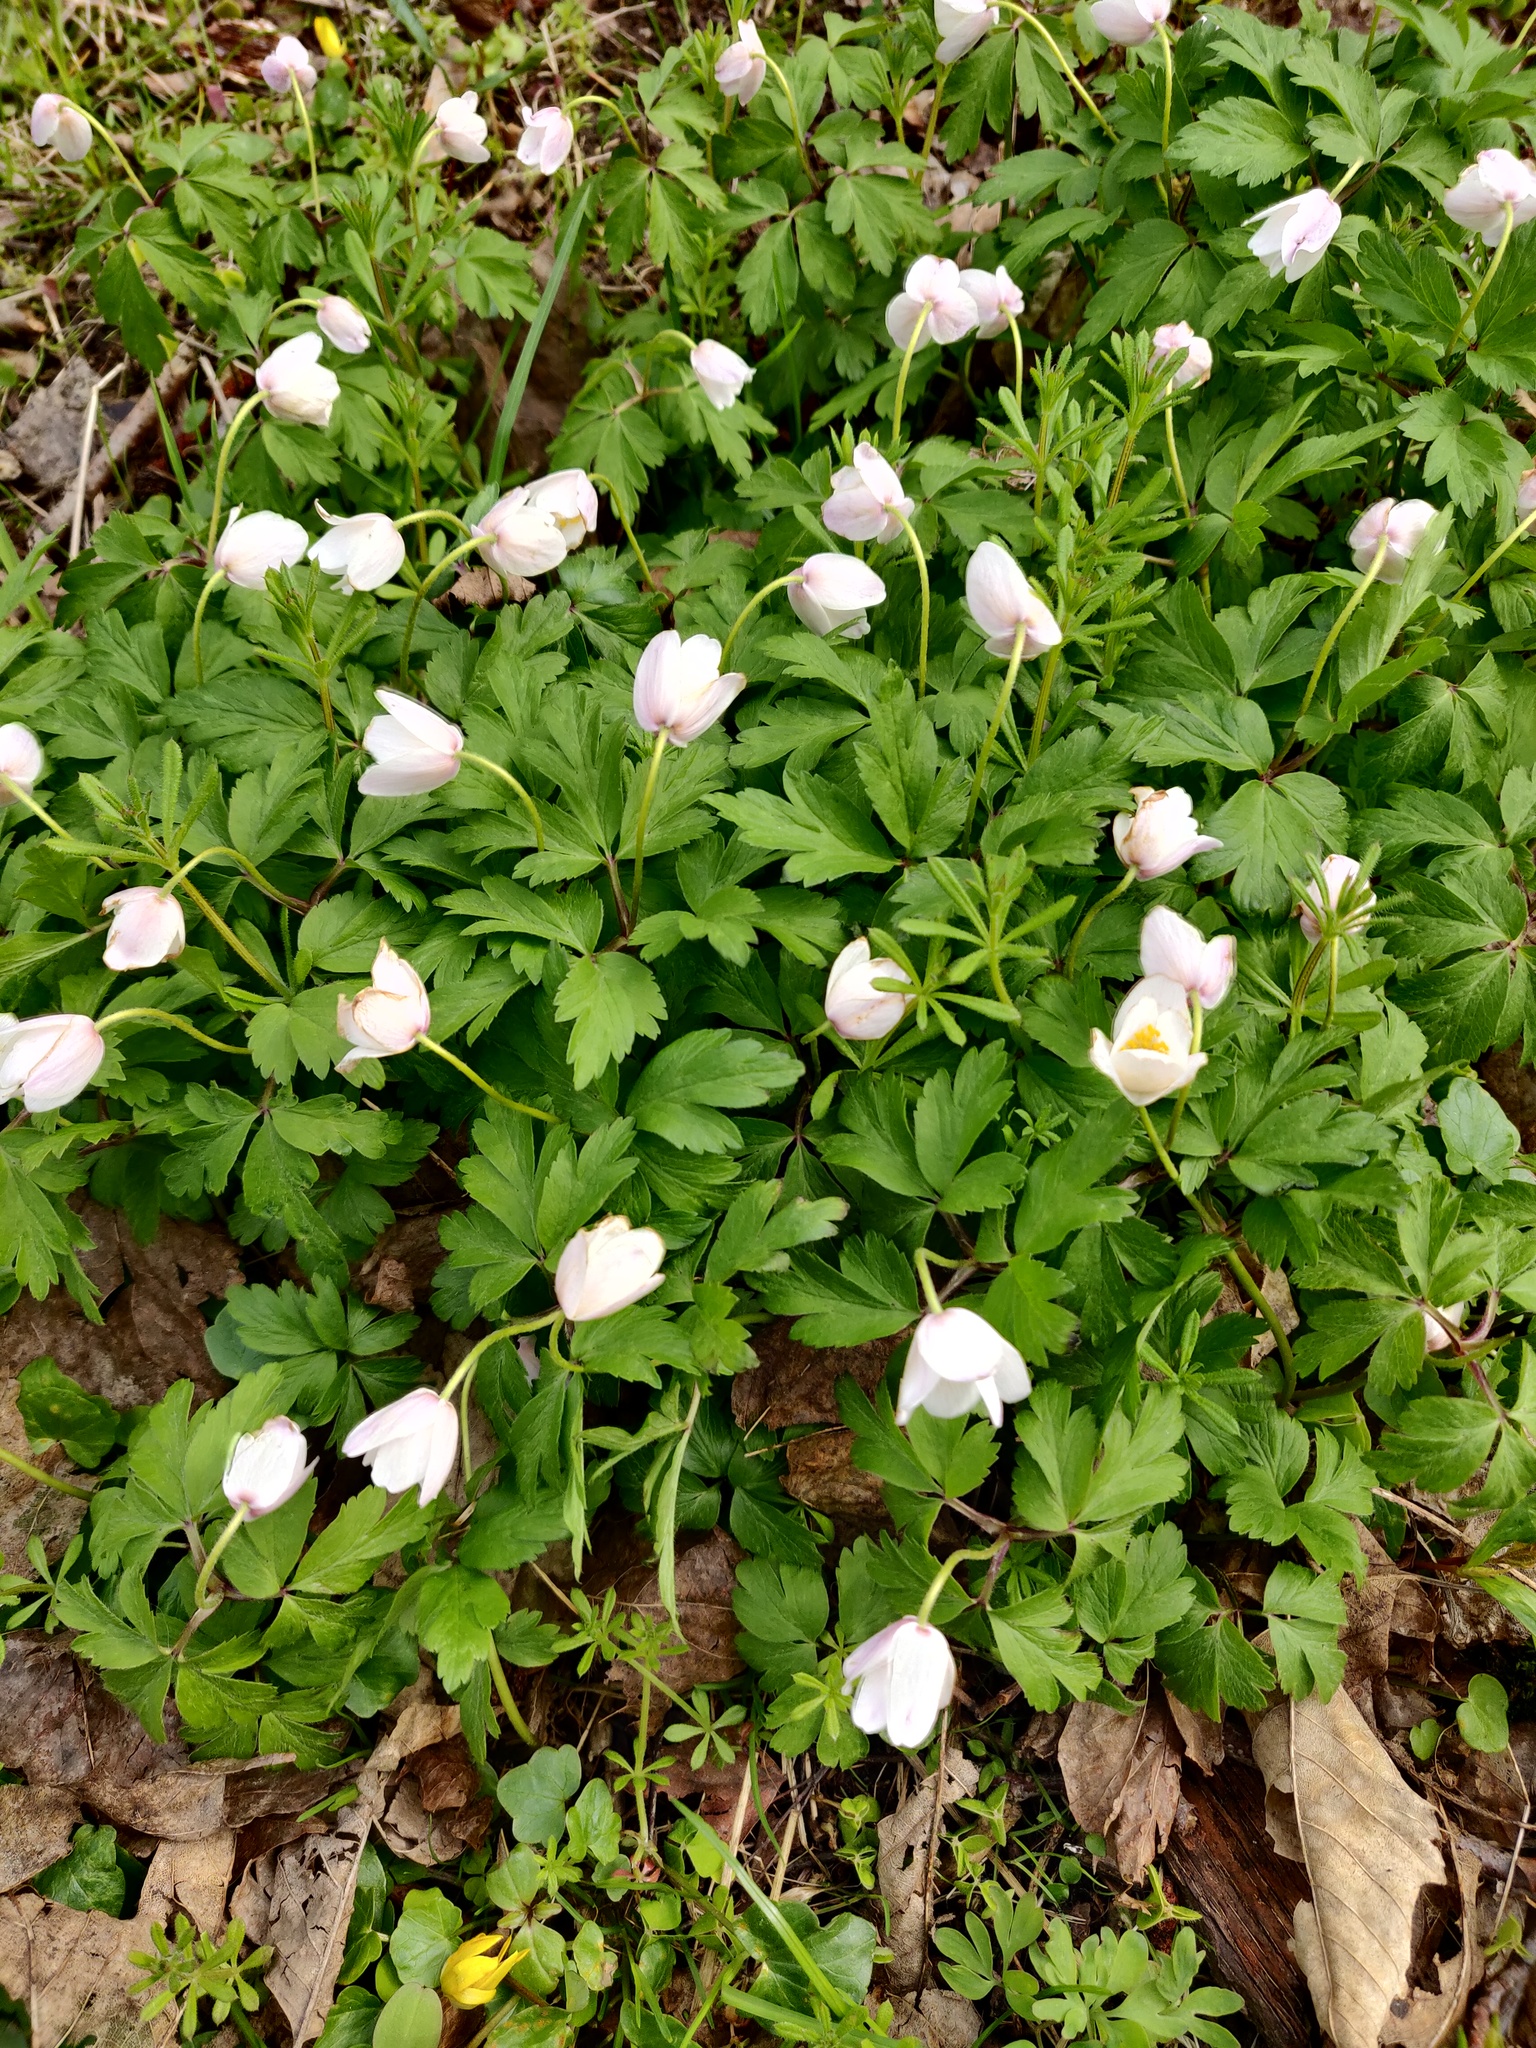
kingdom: Plantae
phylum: Tracheophyta
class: Magnoliopsida
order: Ranunculales
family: Ranunculaceae
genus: Anemone
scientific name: Anemone nemorosa
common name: Wood anemone
